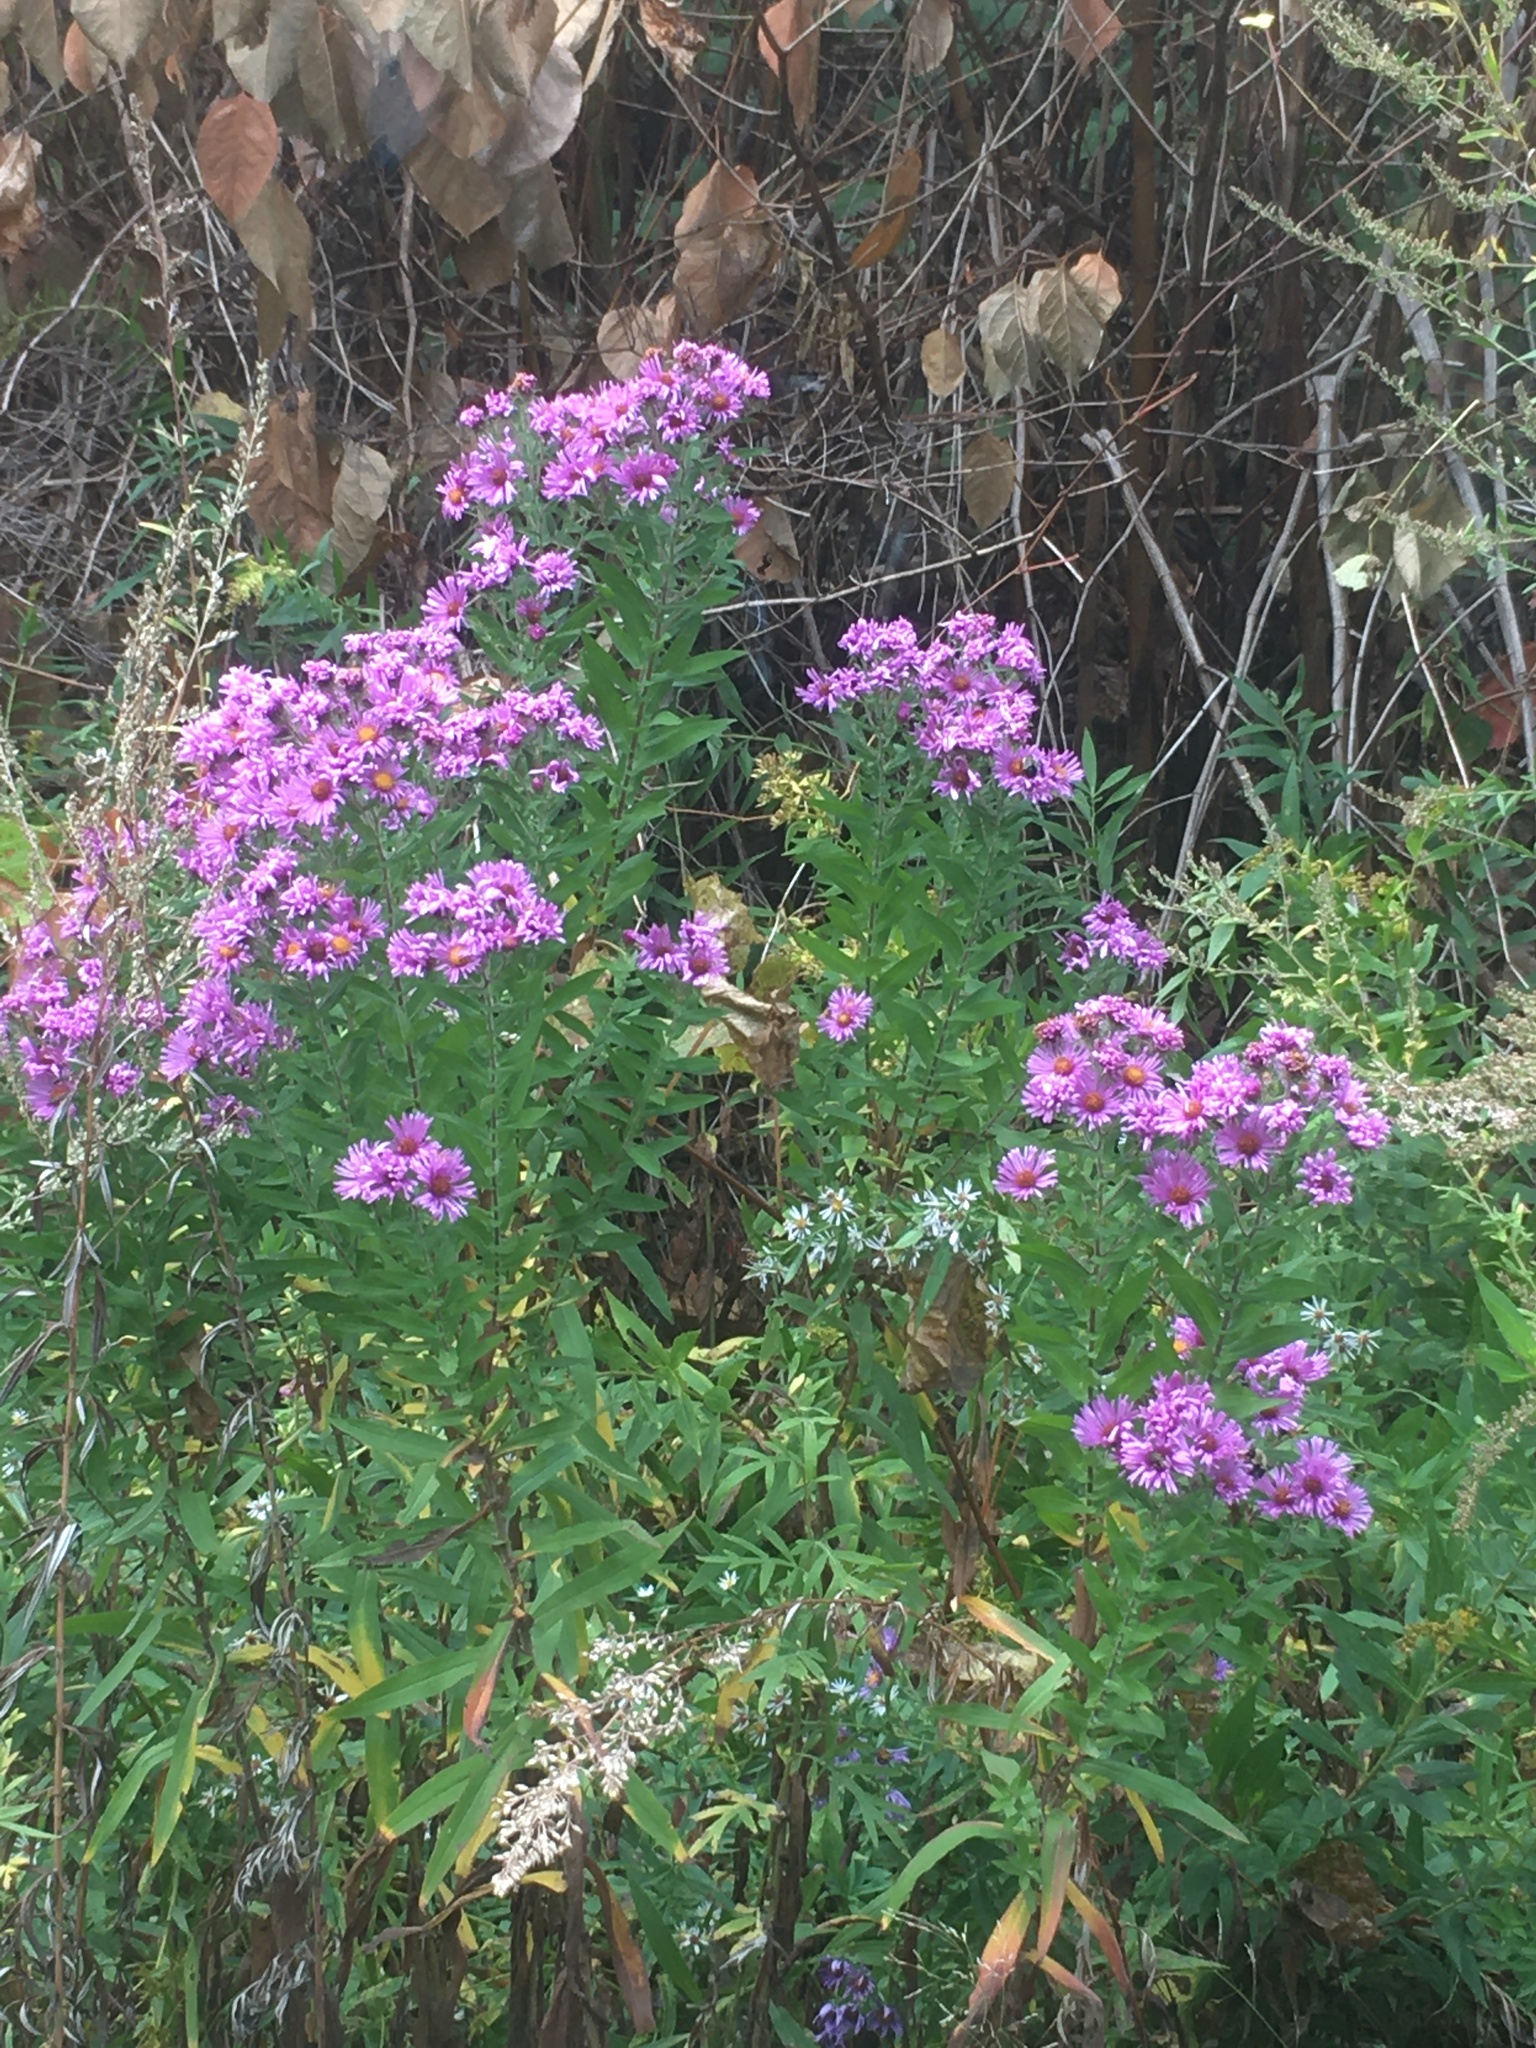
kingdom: Plantae
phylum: Tracheophyta
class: Magnoliopsida
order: Asterales
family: Asteraceae
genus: Symphyotrichum
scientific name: Symphyotrichum novae-angliae
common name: Michaelmas daisy
